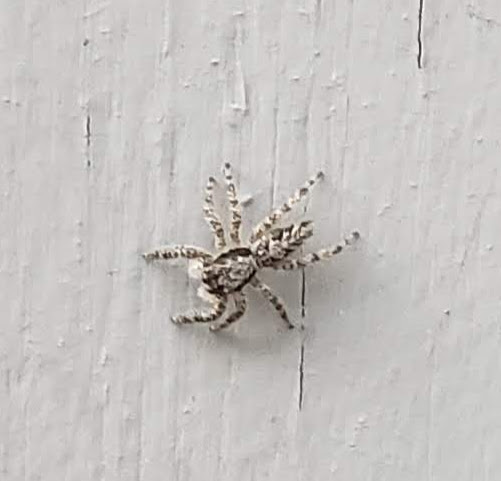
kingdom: Animalia
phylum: Arthropoda
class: Arachnida
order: Araneae
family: Salticidae
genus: Platycryptus
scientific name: Platycryptus californicus
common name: Jumping spiders
